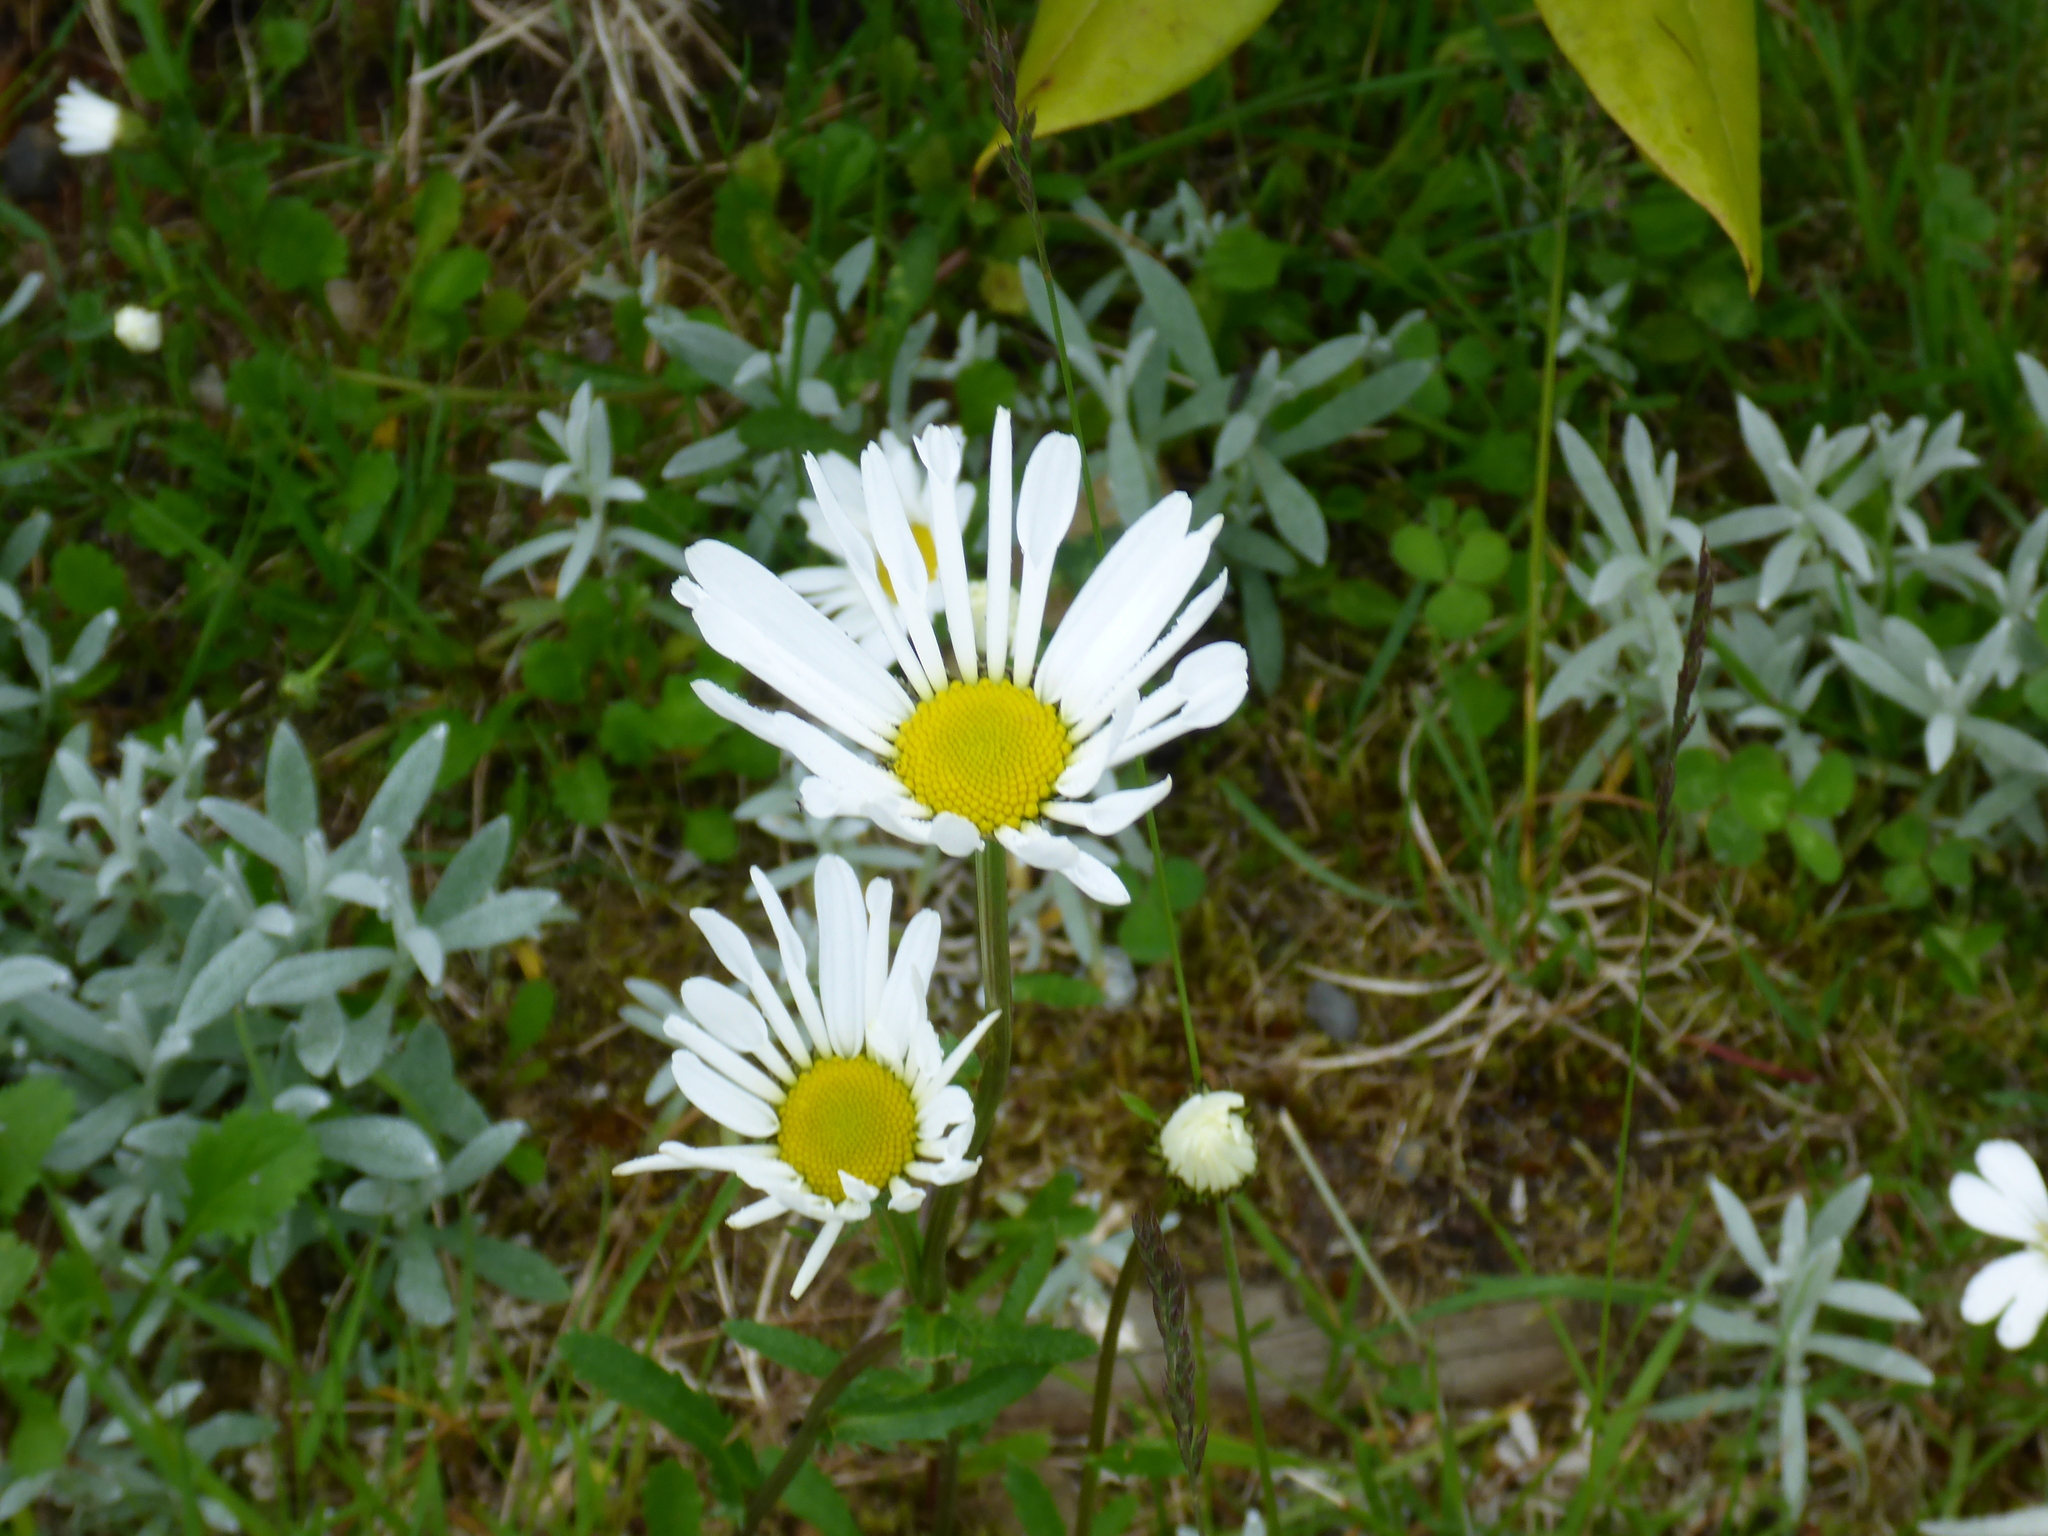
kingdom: Plantae
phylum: Tracheophyta
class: Magnoliopsida
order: Asterales
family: Asteraceae
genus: Leucanthemum
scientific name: Leucanthemum vulgare
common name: Oxeye daisy
